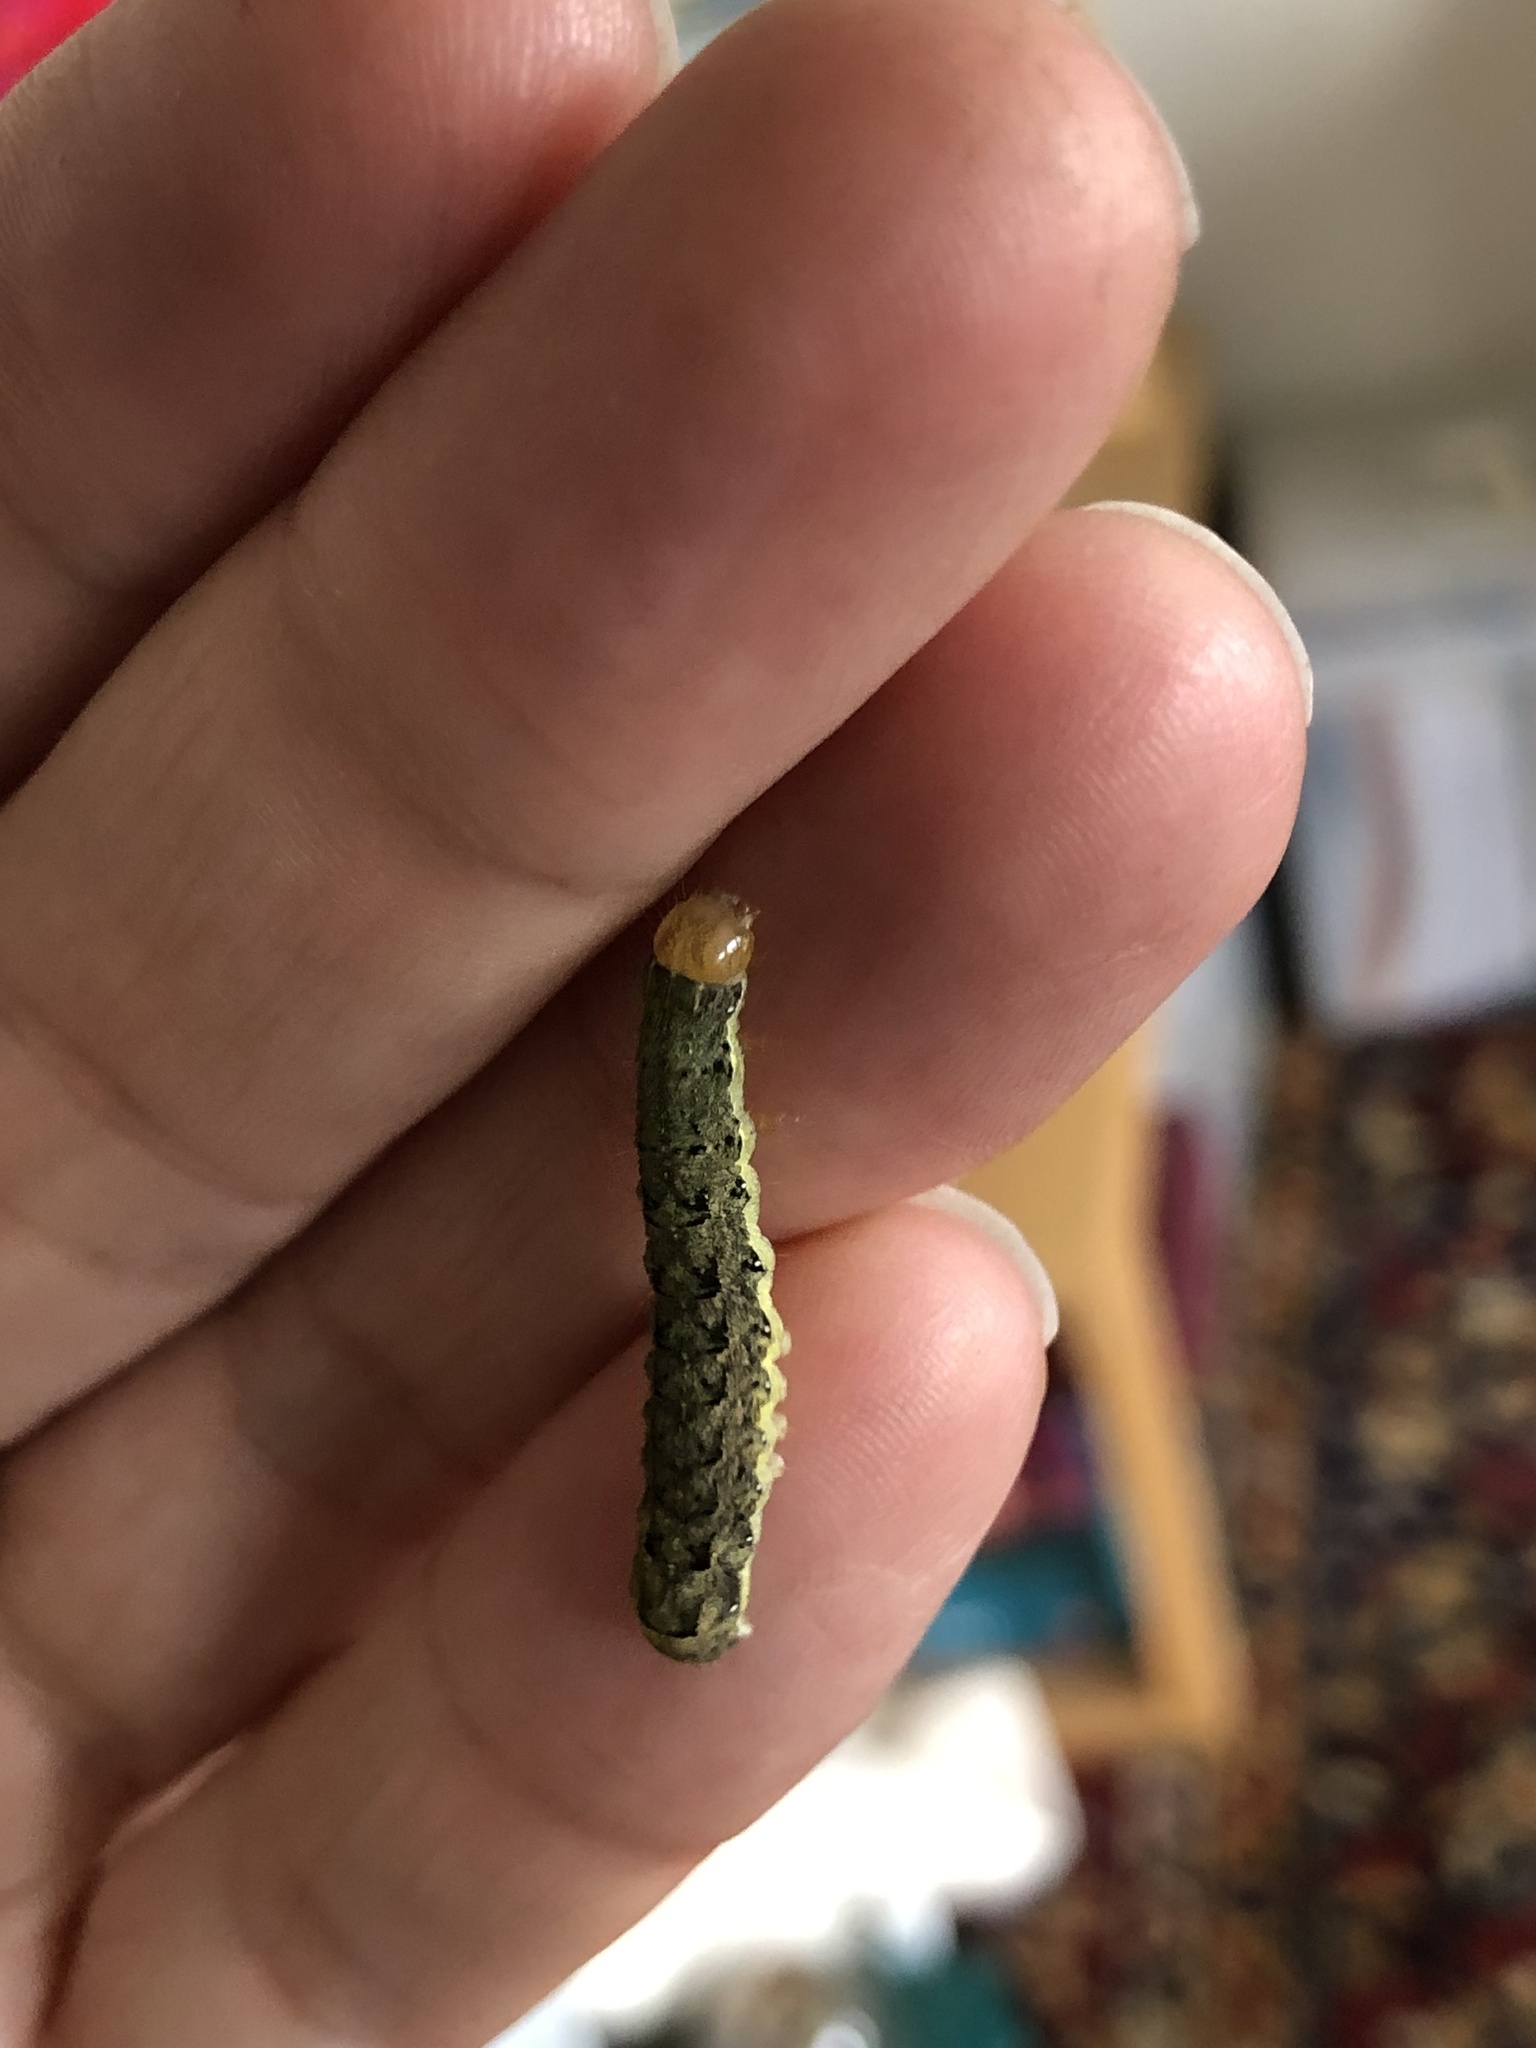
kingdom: Animalia
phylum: Arthropoda
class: Insecta
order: Lepidoptera
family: Noctuidae
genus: Chloridea
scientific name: Chloridea virescens
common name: Tobacco budworm
